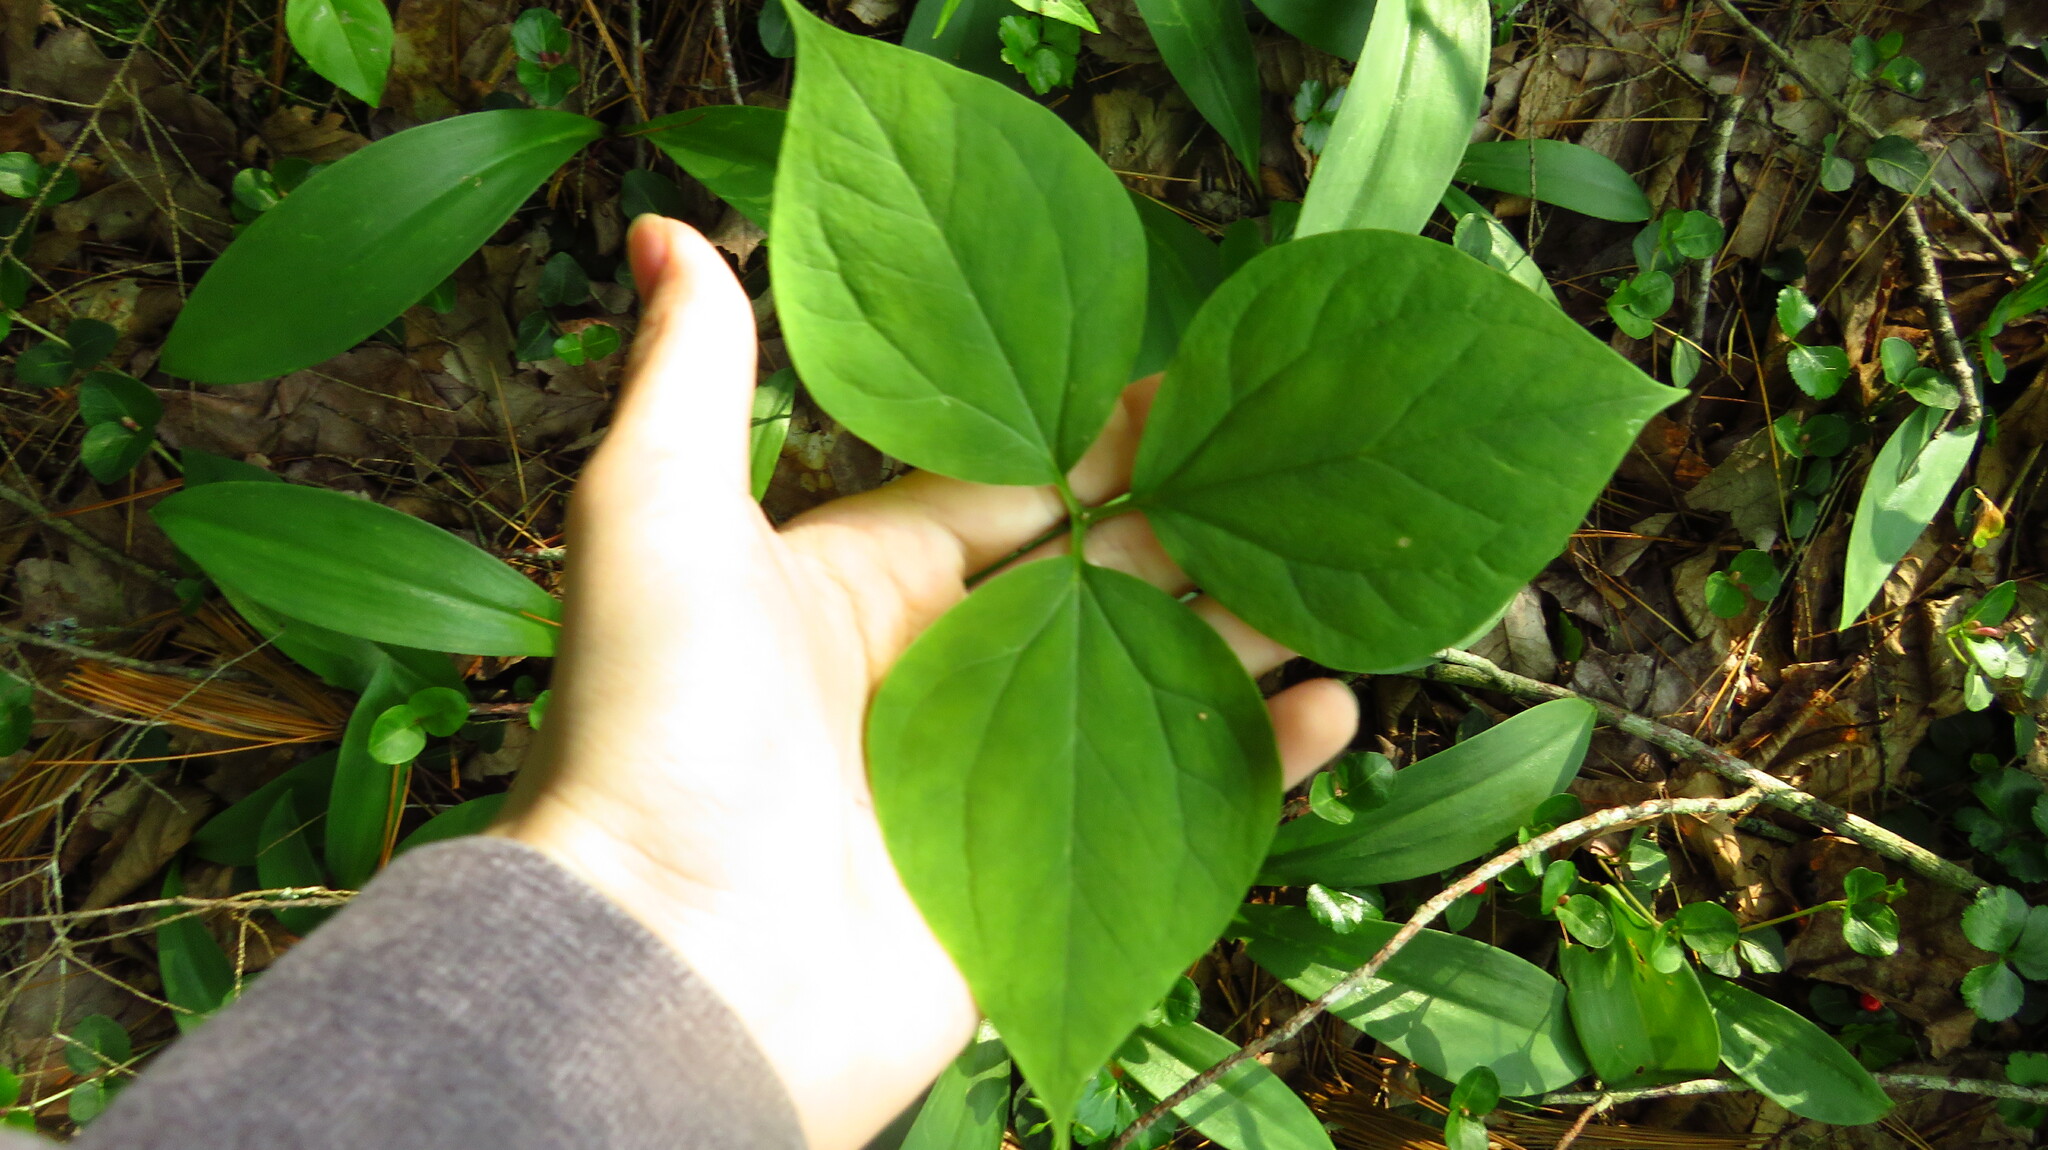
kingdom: Plantae
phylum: Tracheophyta
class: Liliopsida
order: Liliales
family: Melanthiaceae
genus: Trillium
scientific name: Trillium undulatum
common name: Paint trillium
